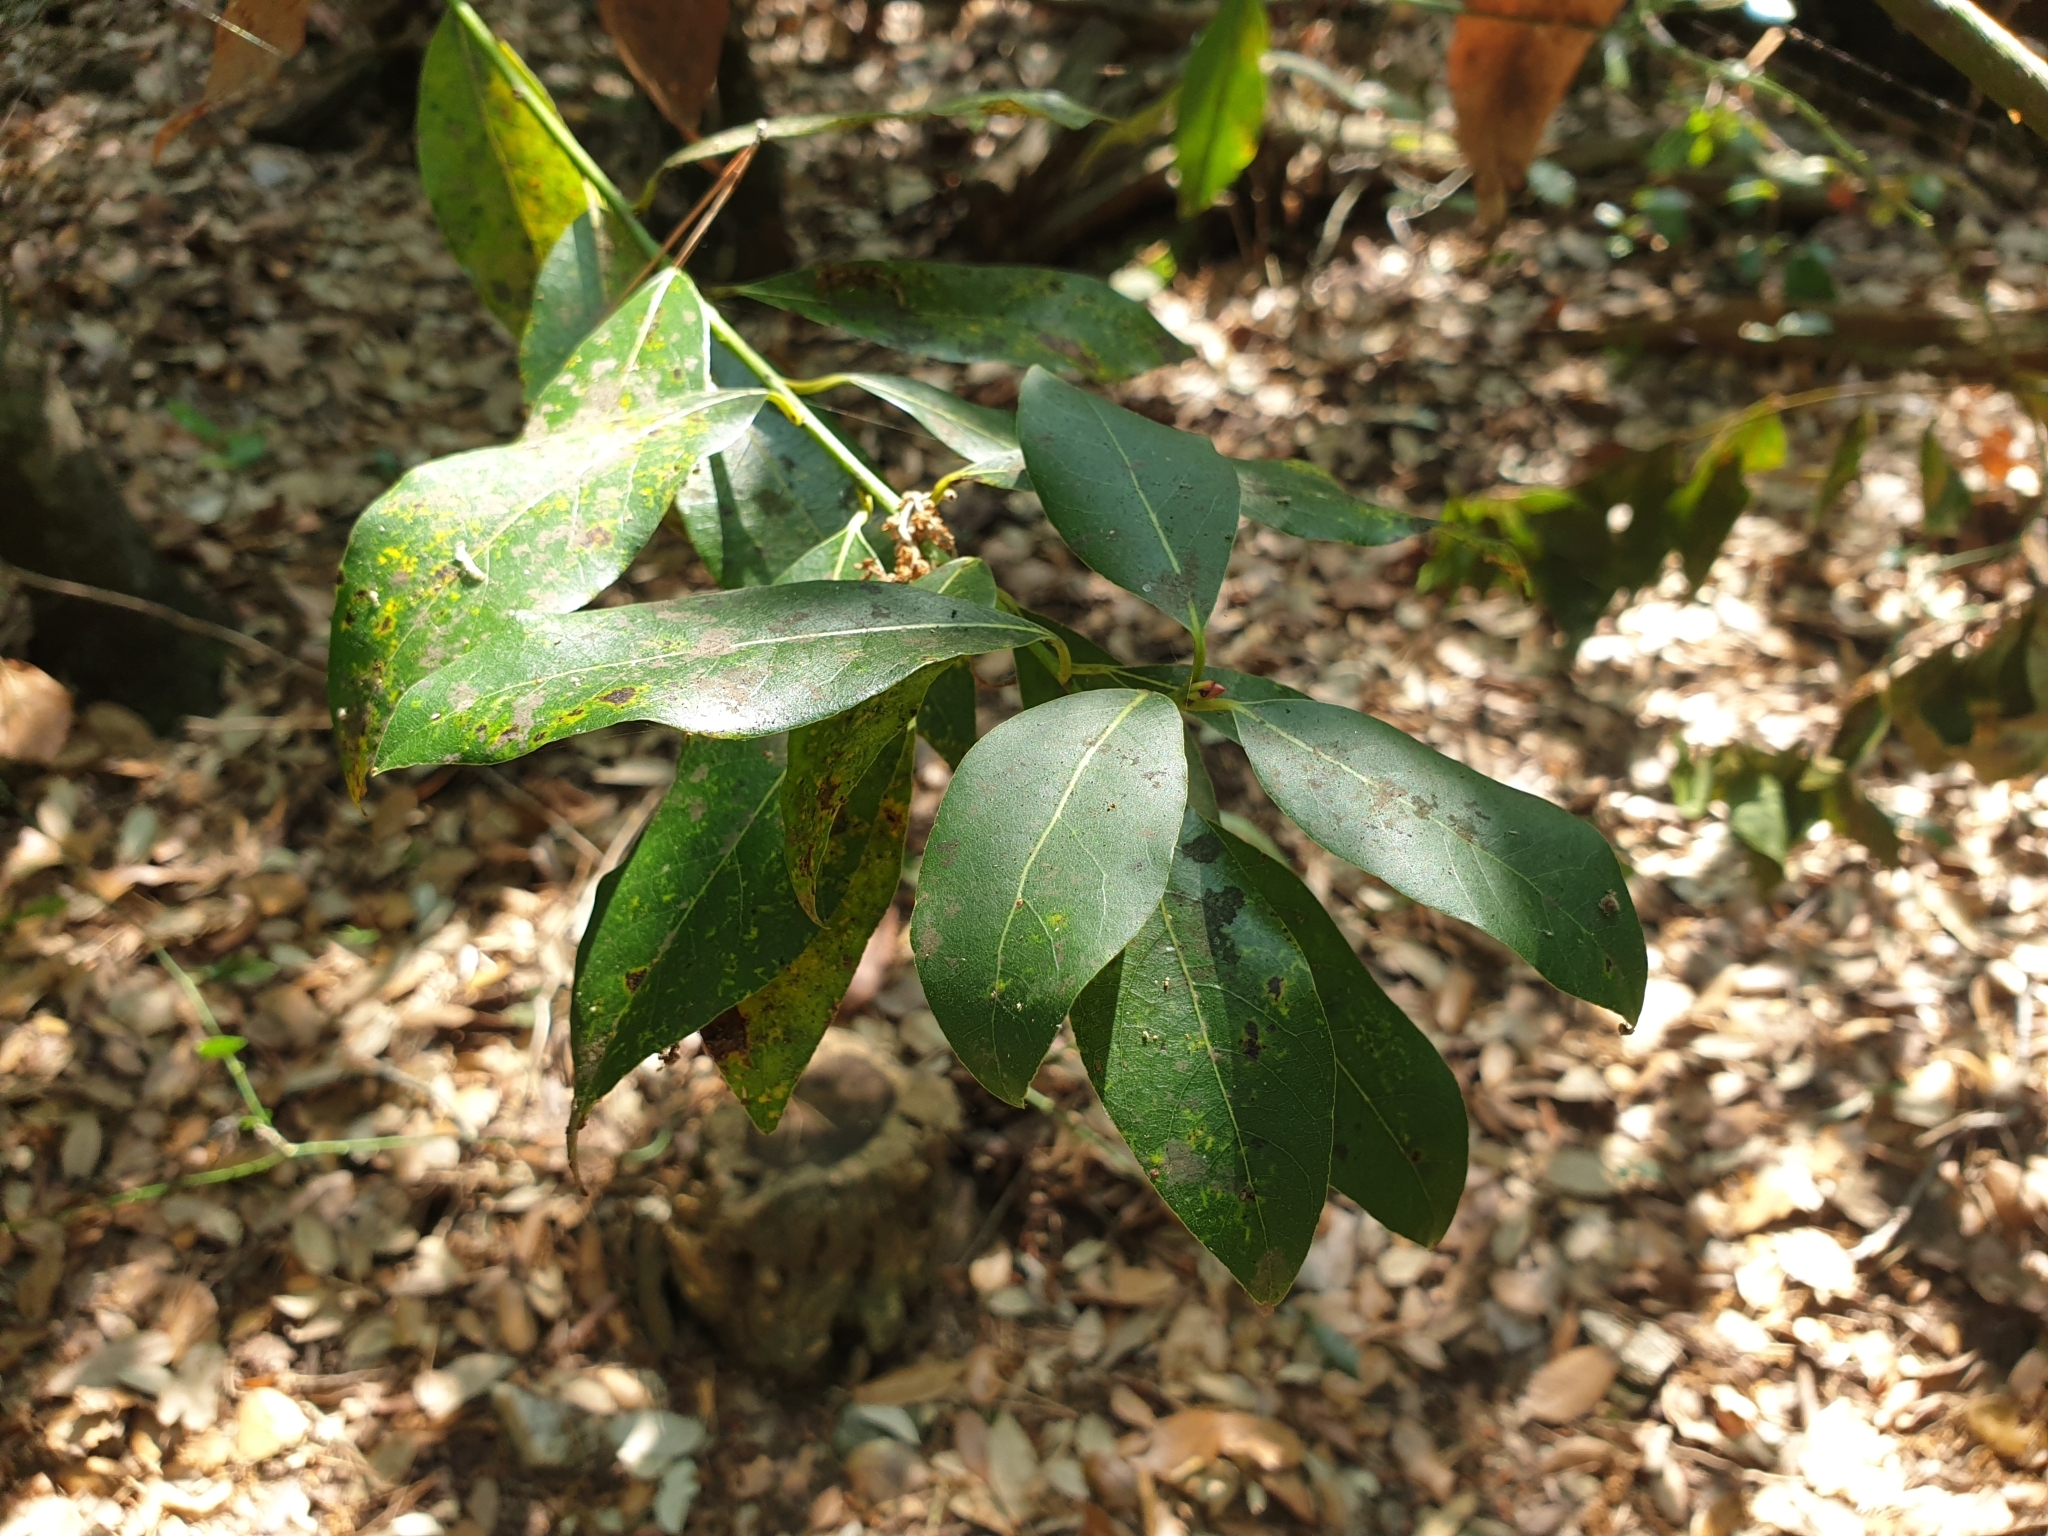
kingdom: Plantae
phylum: Tracheophyta
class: Magnoliopsida
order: Laurales
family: Lauraceae
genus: Laurus
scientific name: Laurus nobilis
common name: Bay
